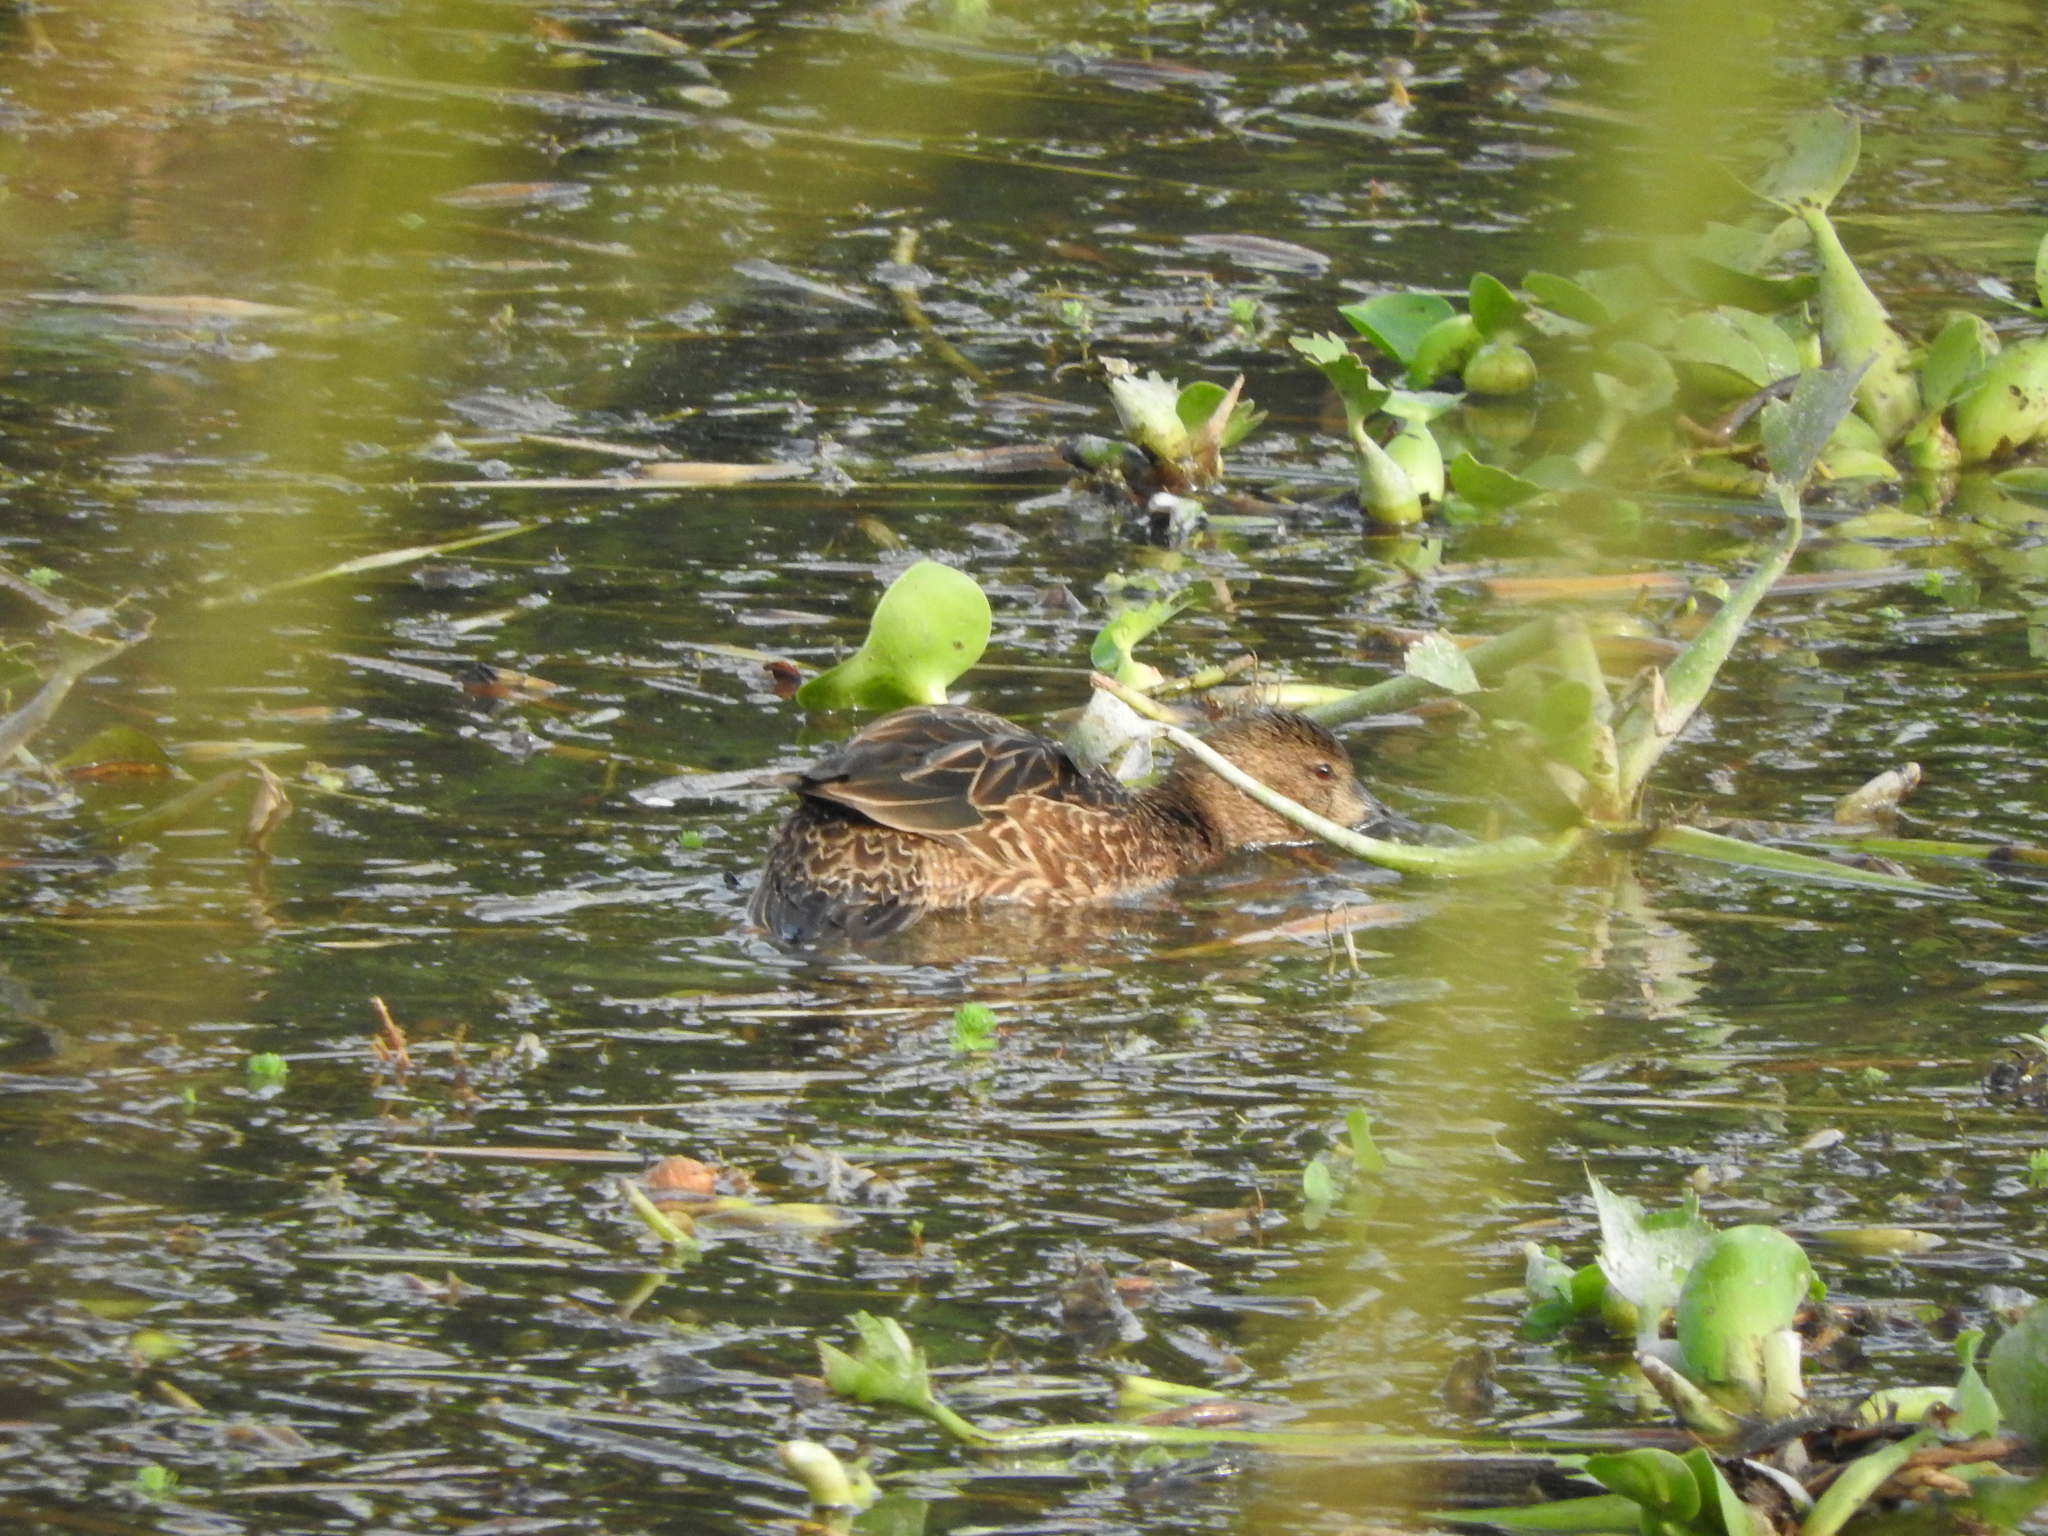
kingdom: Animalia
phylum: Chordata
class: Aves
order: Anseriformes
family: Anatidae
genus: Anas
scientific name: Anas crecca
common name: Eurasian teal
